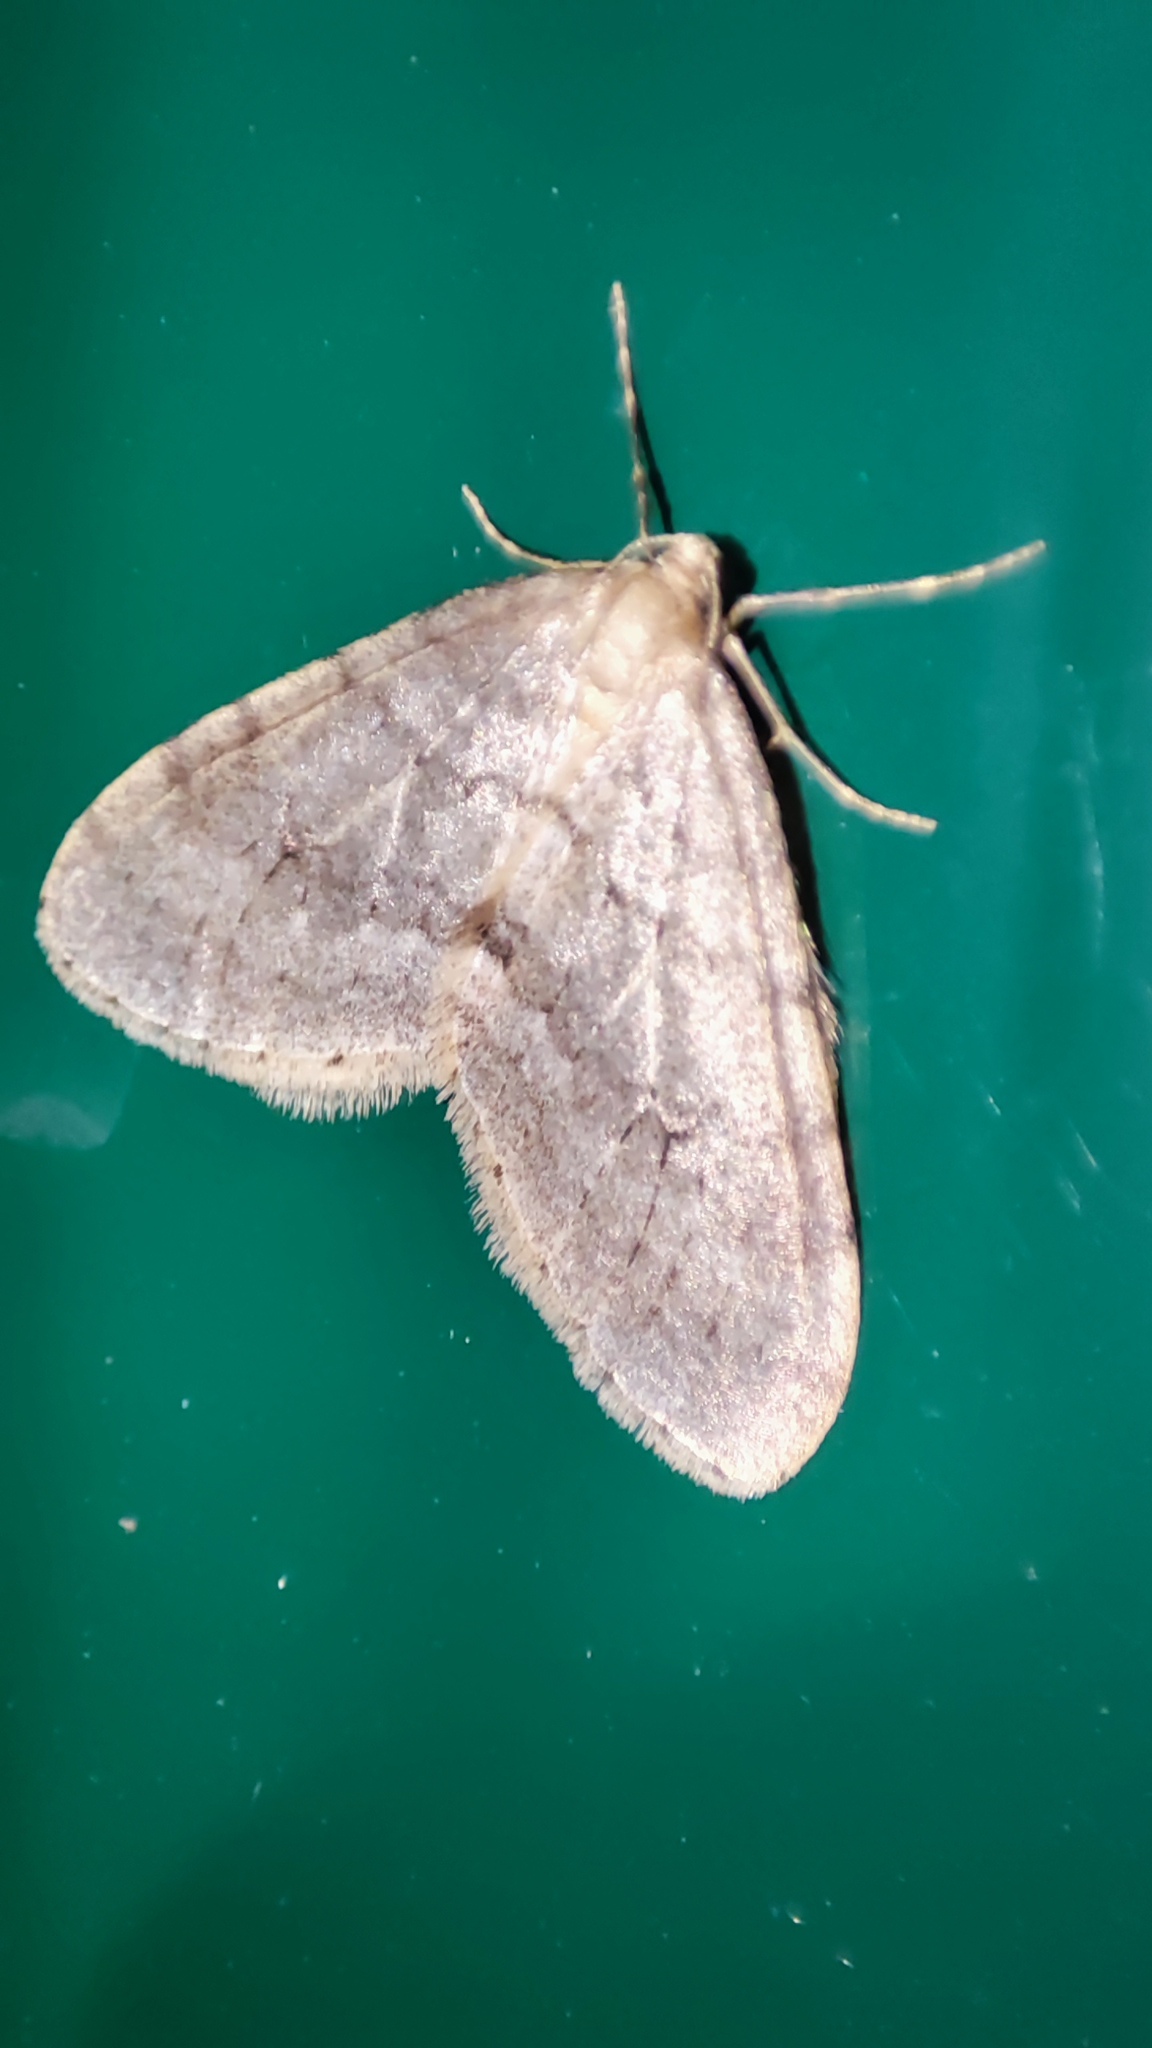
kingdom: Animalia
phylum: Arthropoda
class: Insecta
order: Lepidoptera
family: Geometridae
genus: Operophtera
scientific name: Operophtera fagata
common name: Northern winter moth
